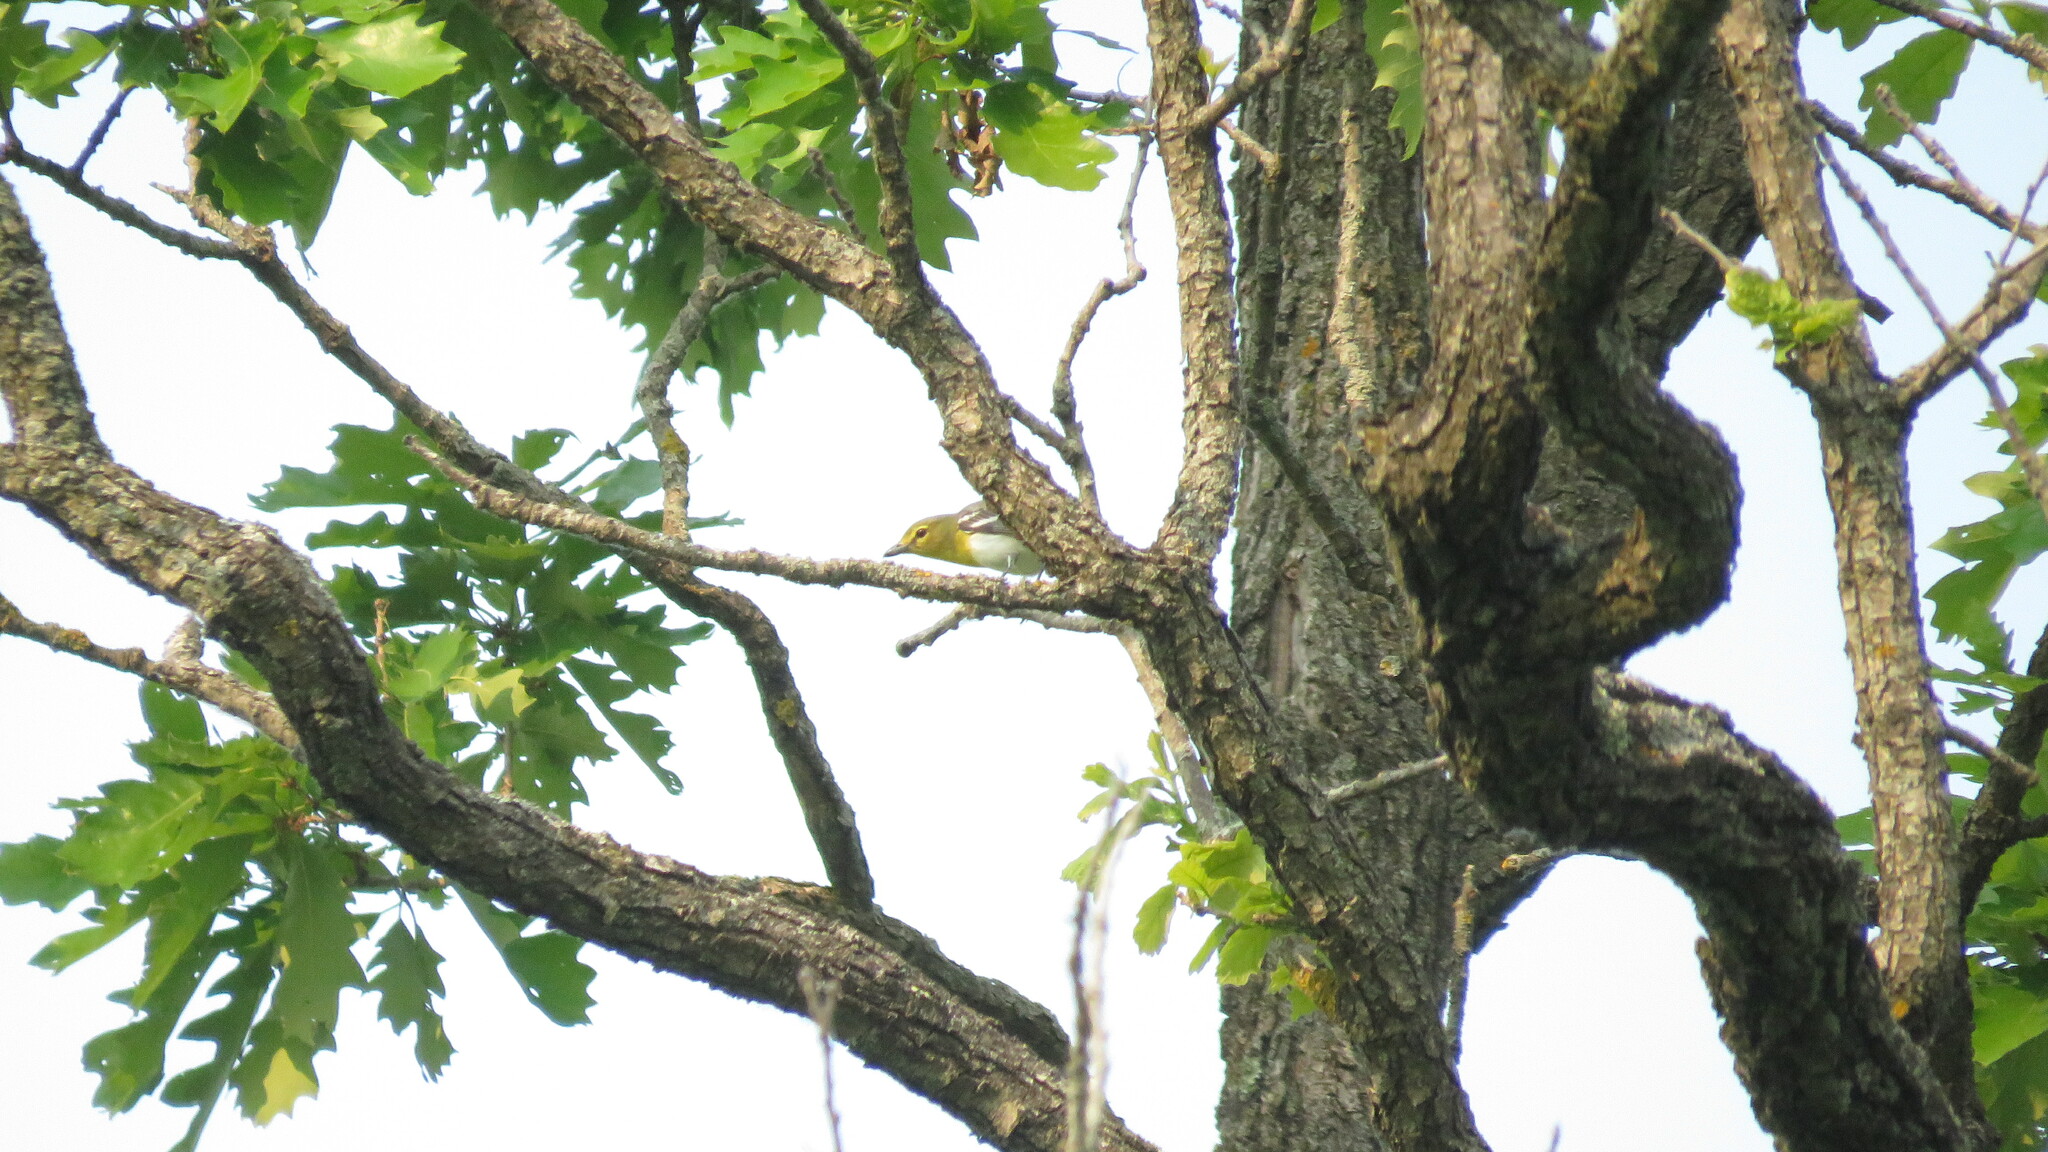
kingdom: Animalia
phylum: Chordata
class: Aves
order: Passeriformes
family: Vireonidae
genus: Vireo
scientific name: Vireo flavifrons
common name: Yellow-throated vireo
